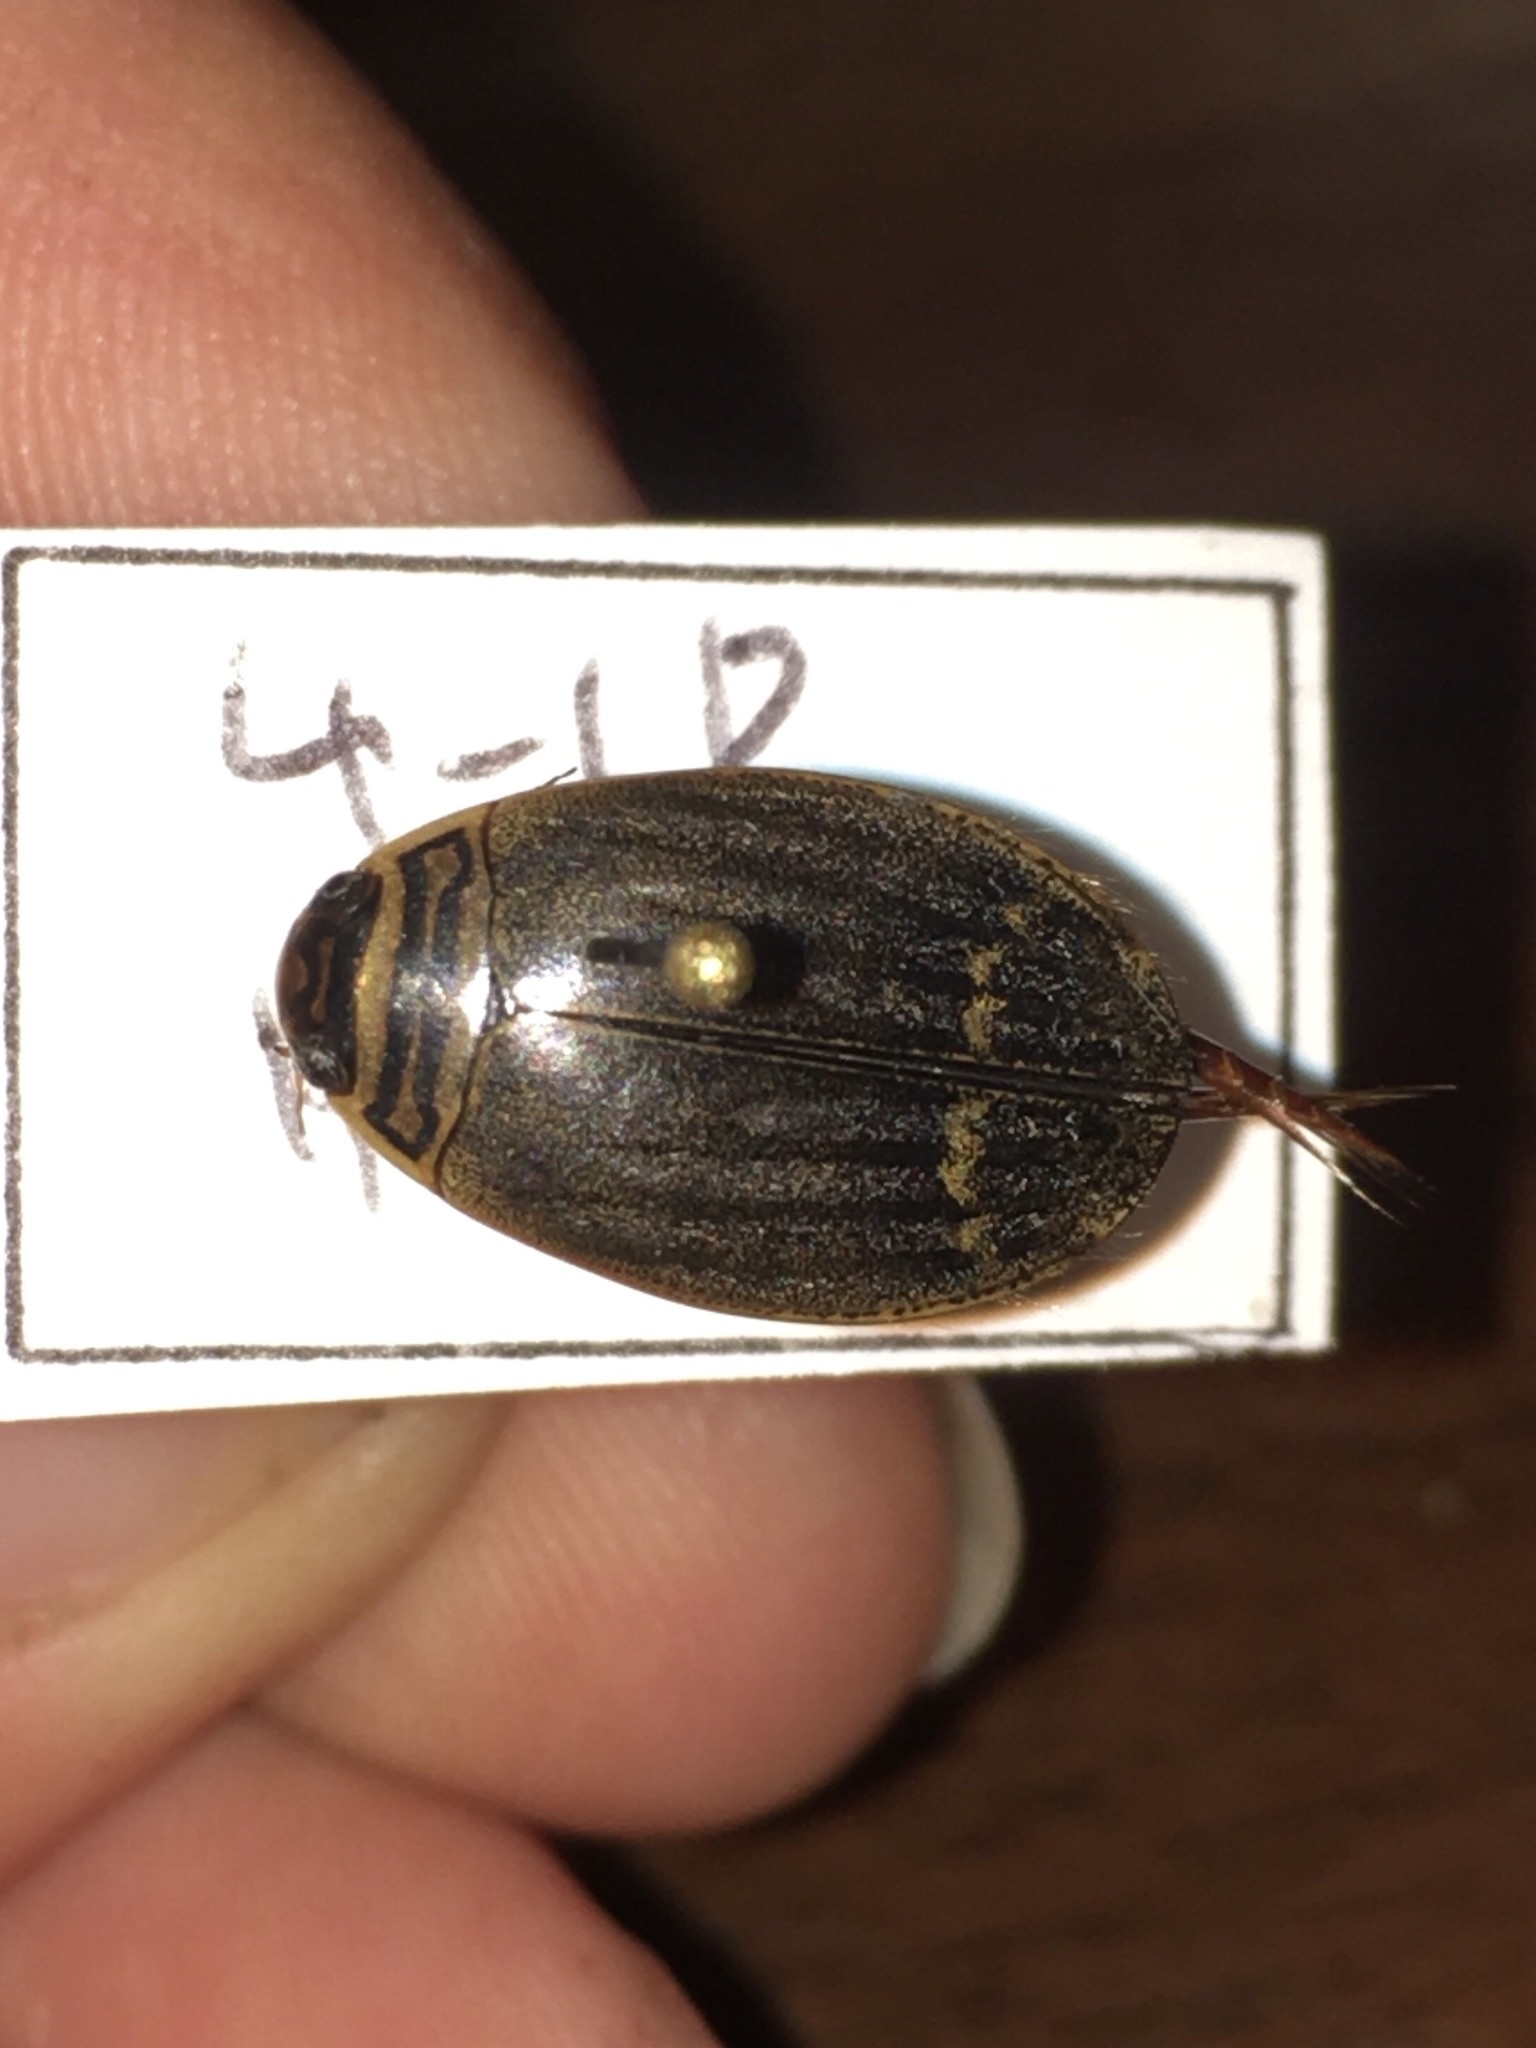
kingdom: Animalia
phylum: Arthropoda
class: Insecta
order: Coleoptera
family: Dytiscidae
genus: Acilius
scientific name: Acilius semisulcatus
